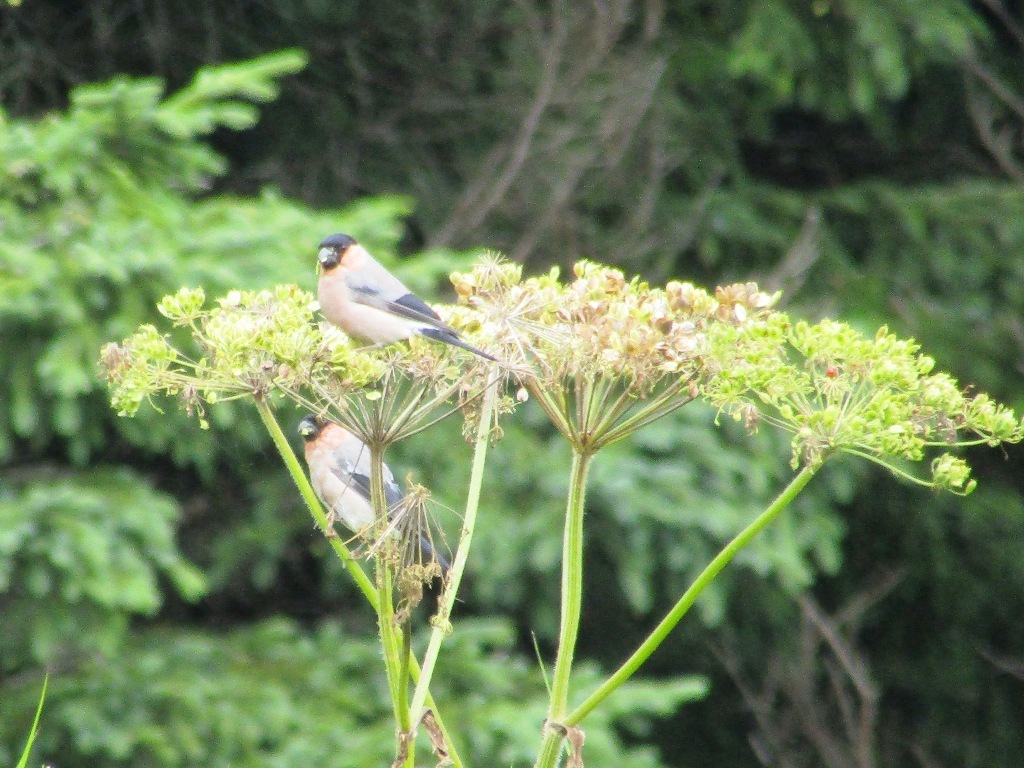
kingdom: Animalia
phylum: Chordata
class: Aves
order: Passeriformes
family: Fringillidae
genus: Pyrrhula
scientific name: Pyrrhula pyrrhula
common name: Eurasian bullfinch
